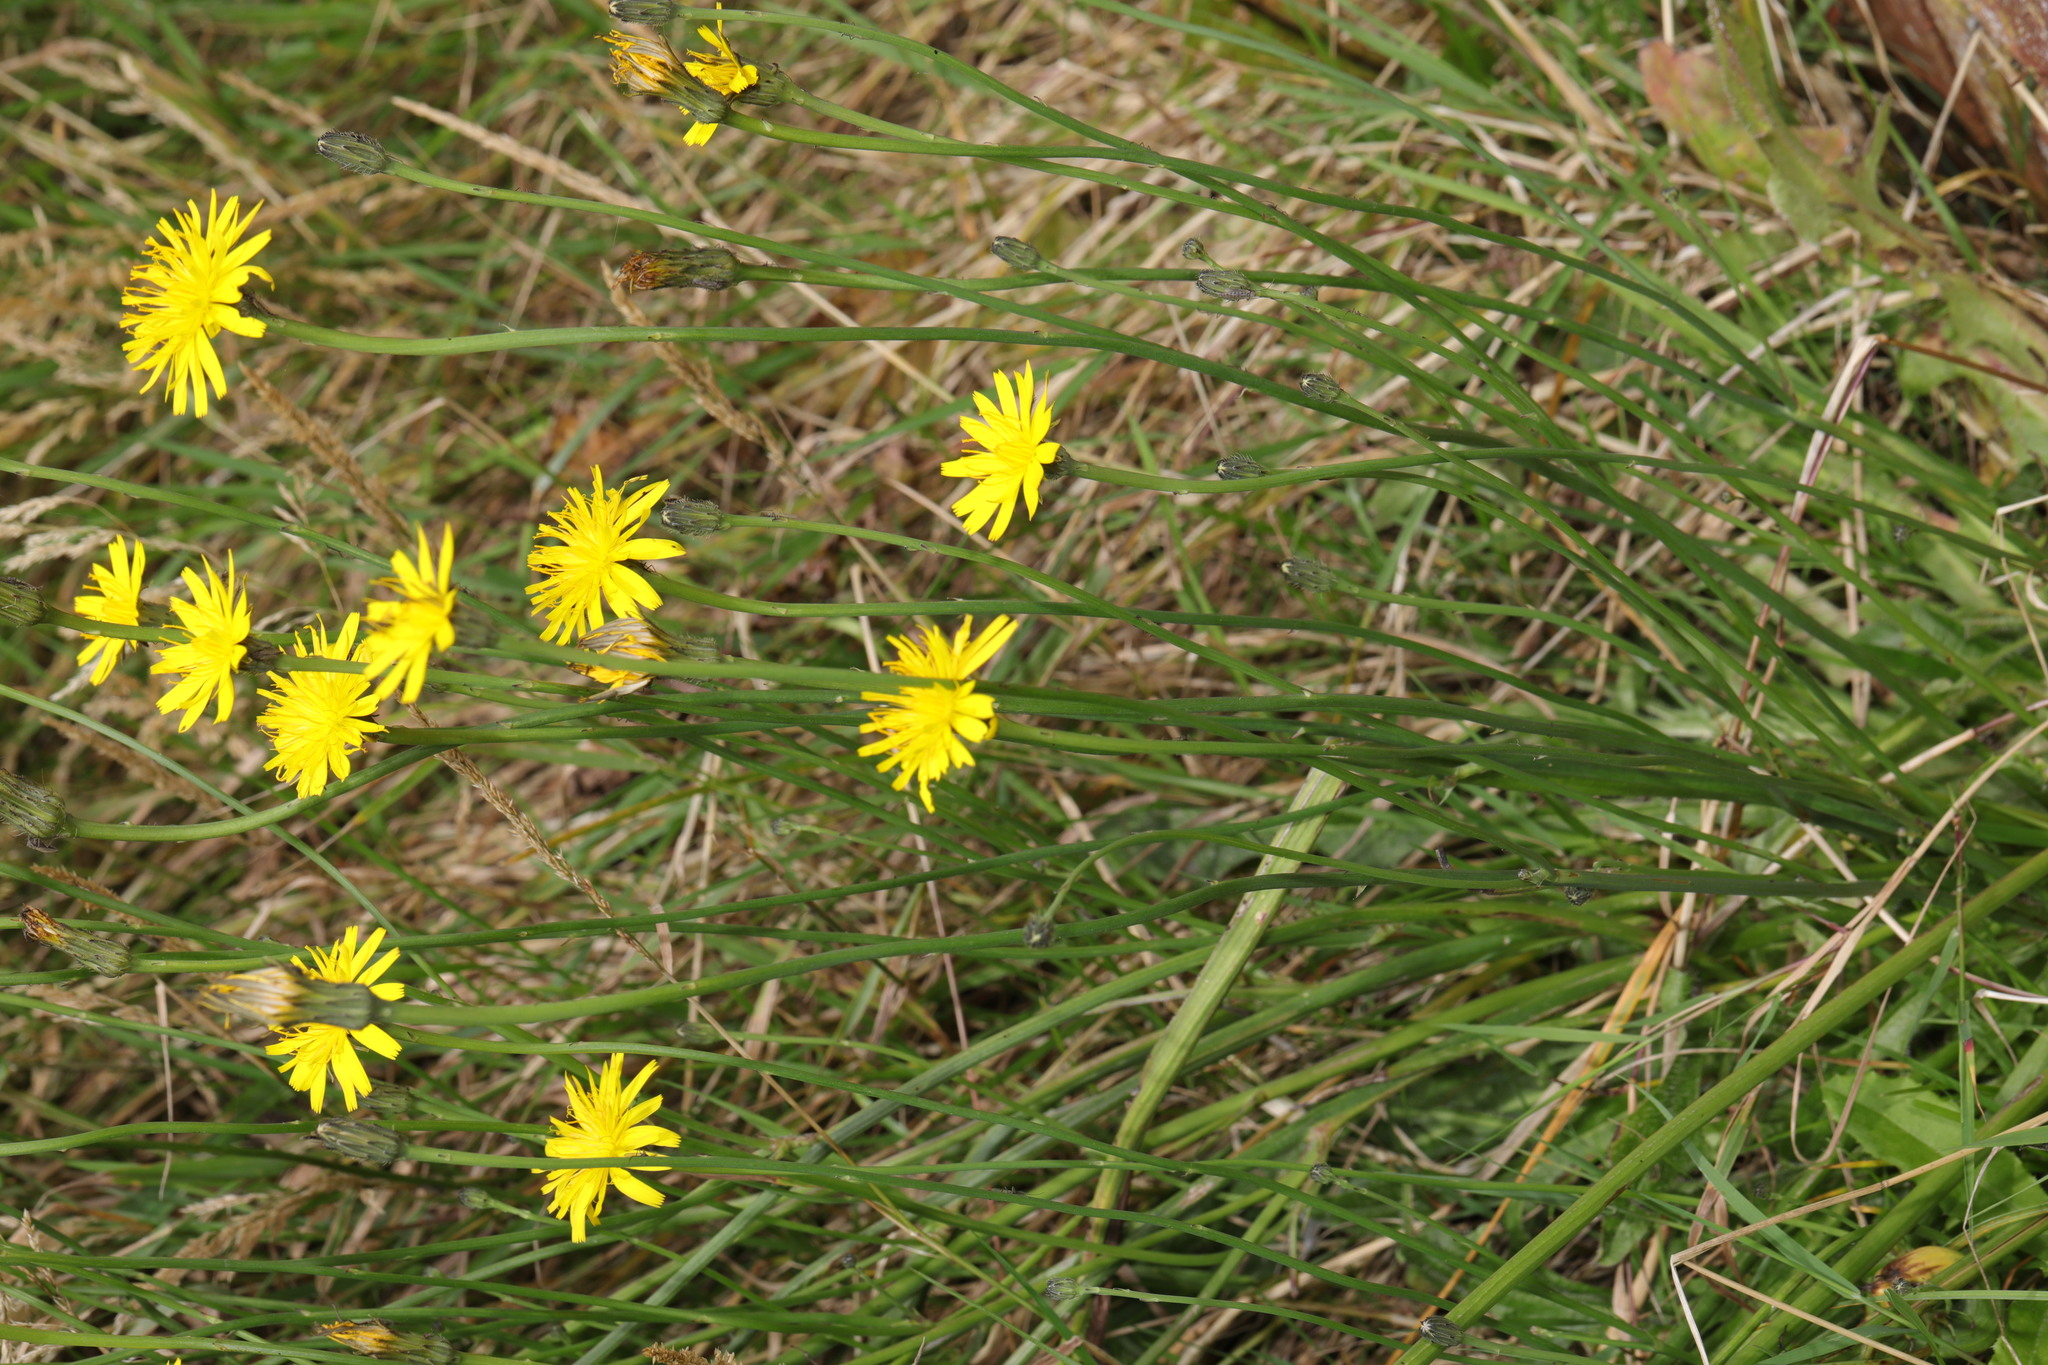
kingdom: Plantae
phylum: Tracheophyta
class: Magnoliopsida
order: Asterales
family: Asteraceae
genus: Hypochaeris
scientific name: Hypochaeris radicata
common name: Flatweed
